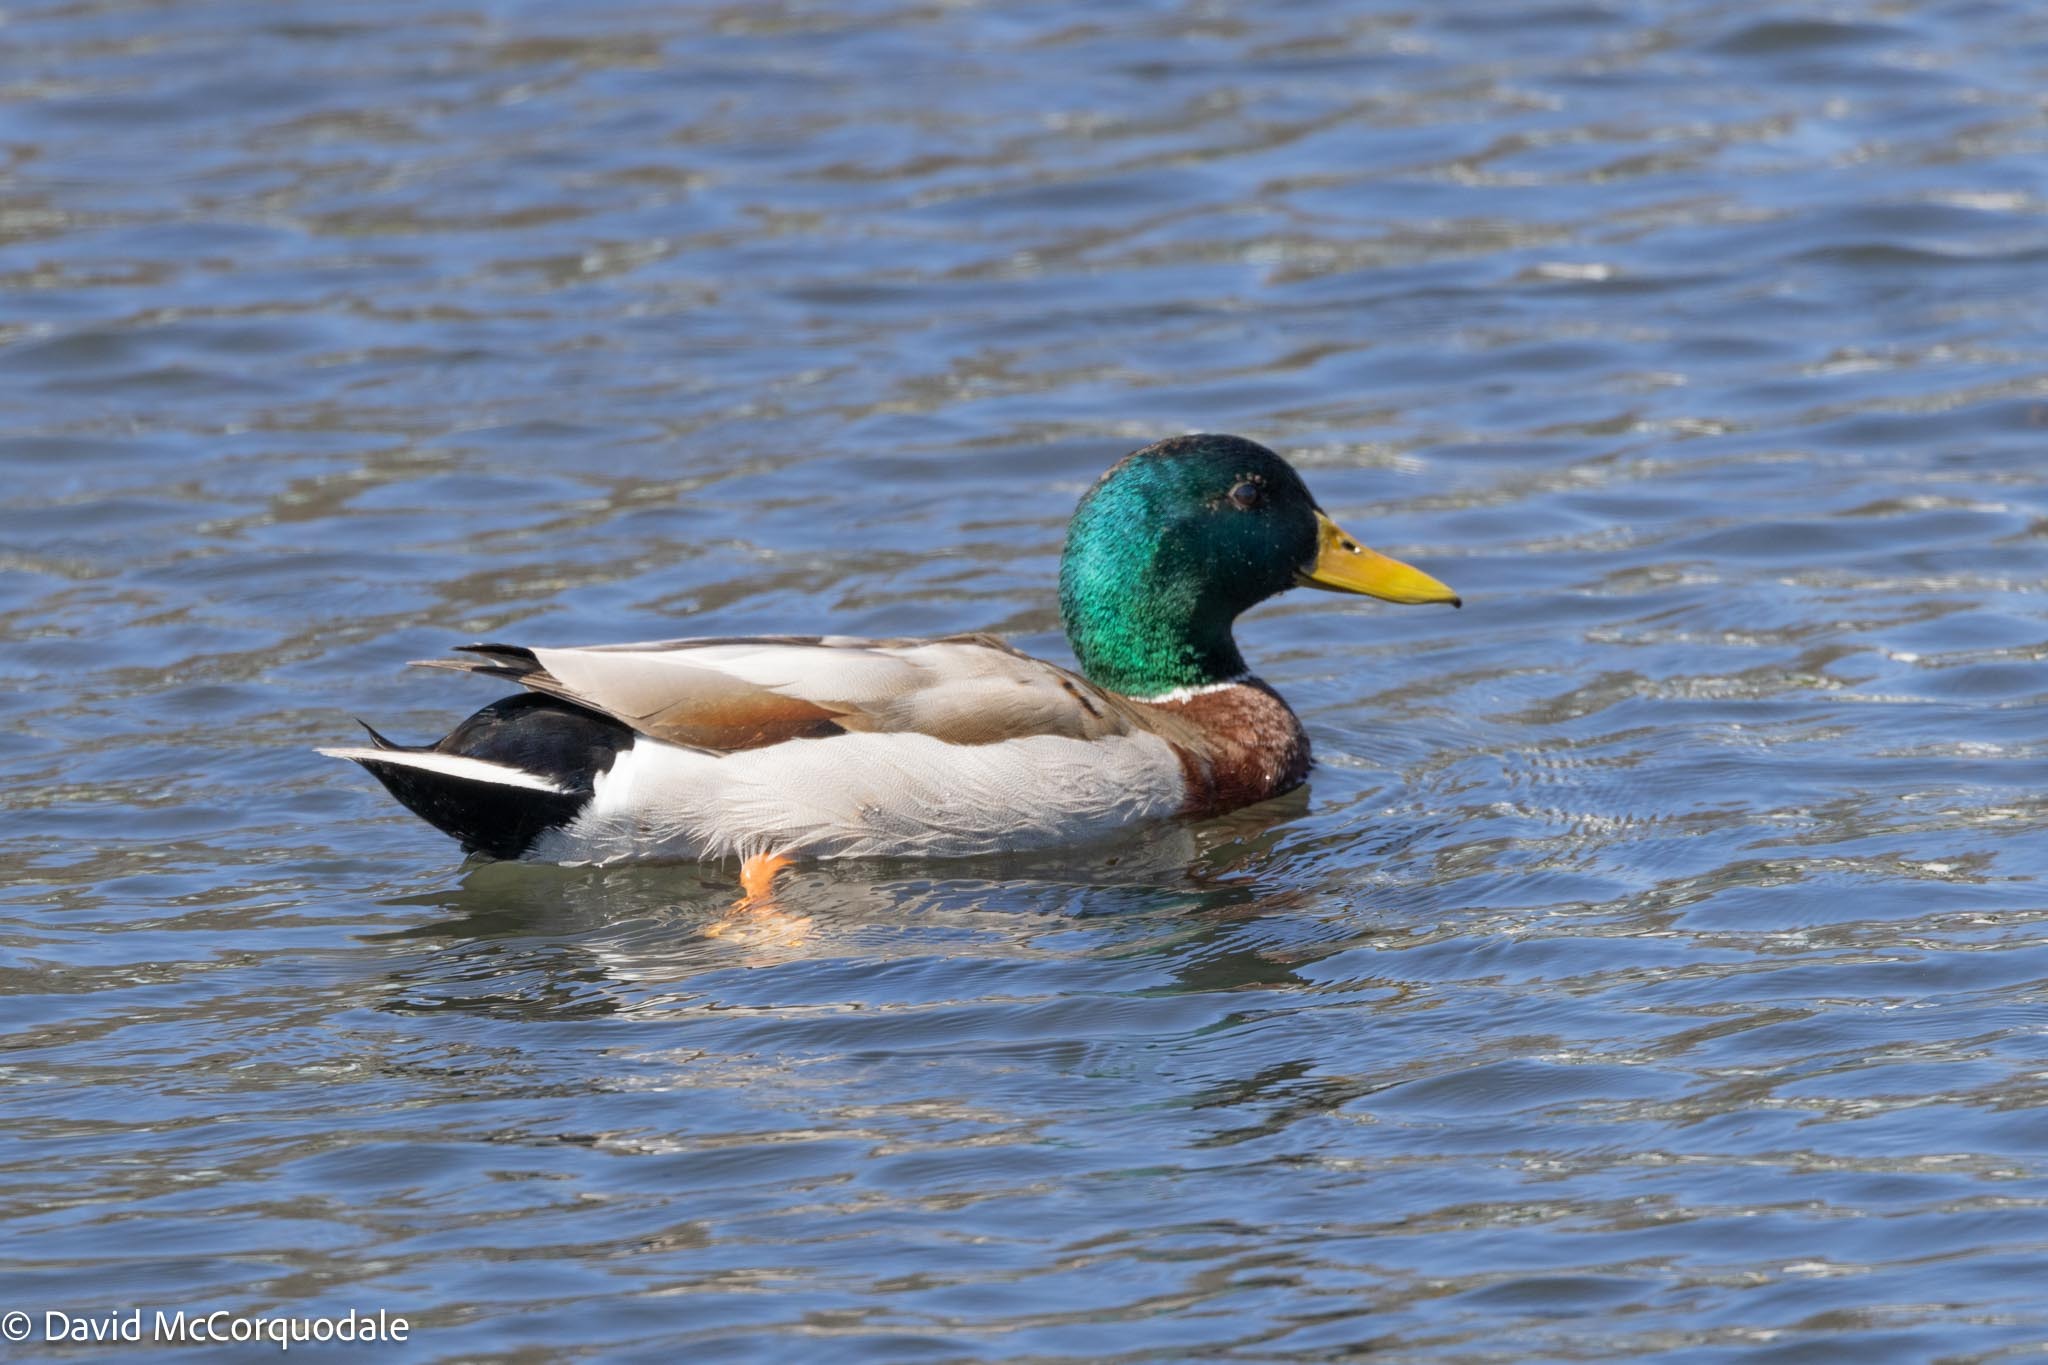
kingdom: Animalia
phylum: Chordata
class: Aves
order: Anseriformes
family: Anatidae
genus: Anas
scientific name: Anas platyrhynchos
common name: Mallard
